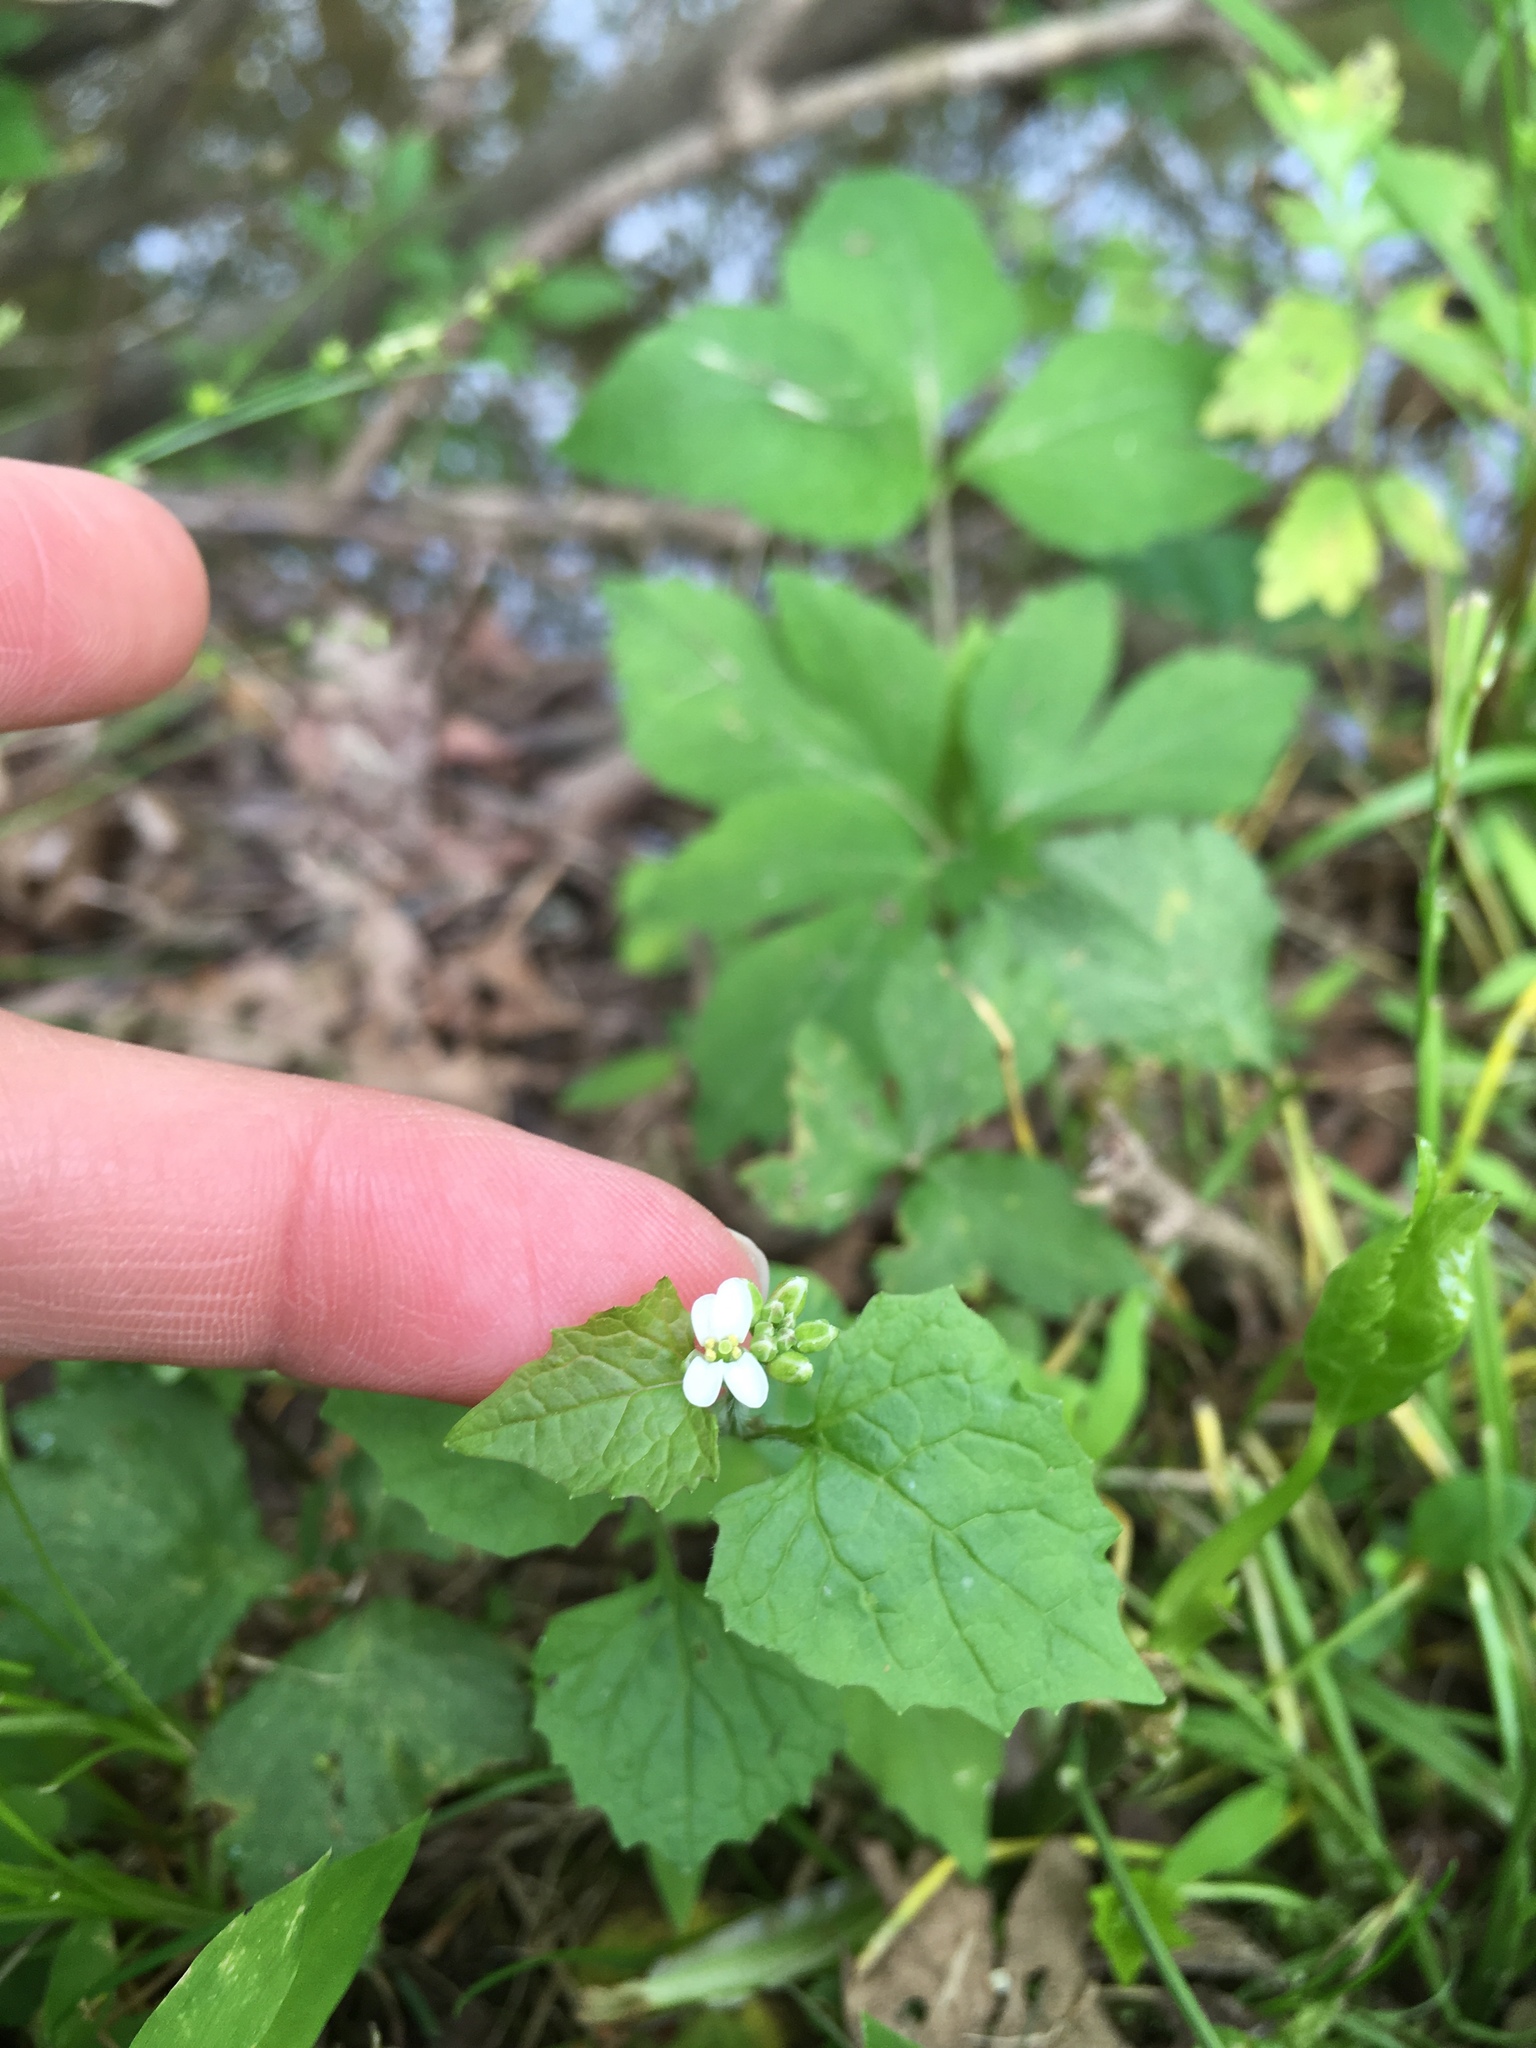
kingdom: Plantae
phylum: Tracheophyta
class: Magnoliopsida
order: Brassicales
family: Brassicaceae
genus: Alliaria
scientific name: Alliaria petiolata
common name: Garlic mustard
